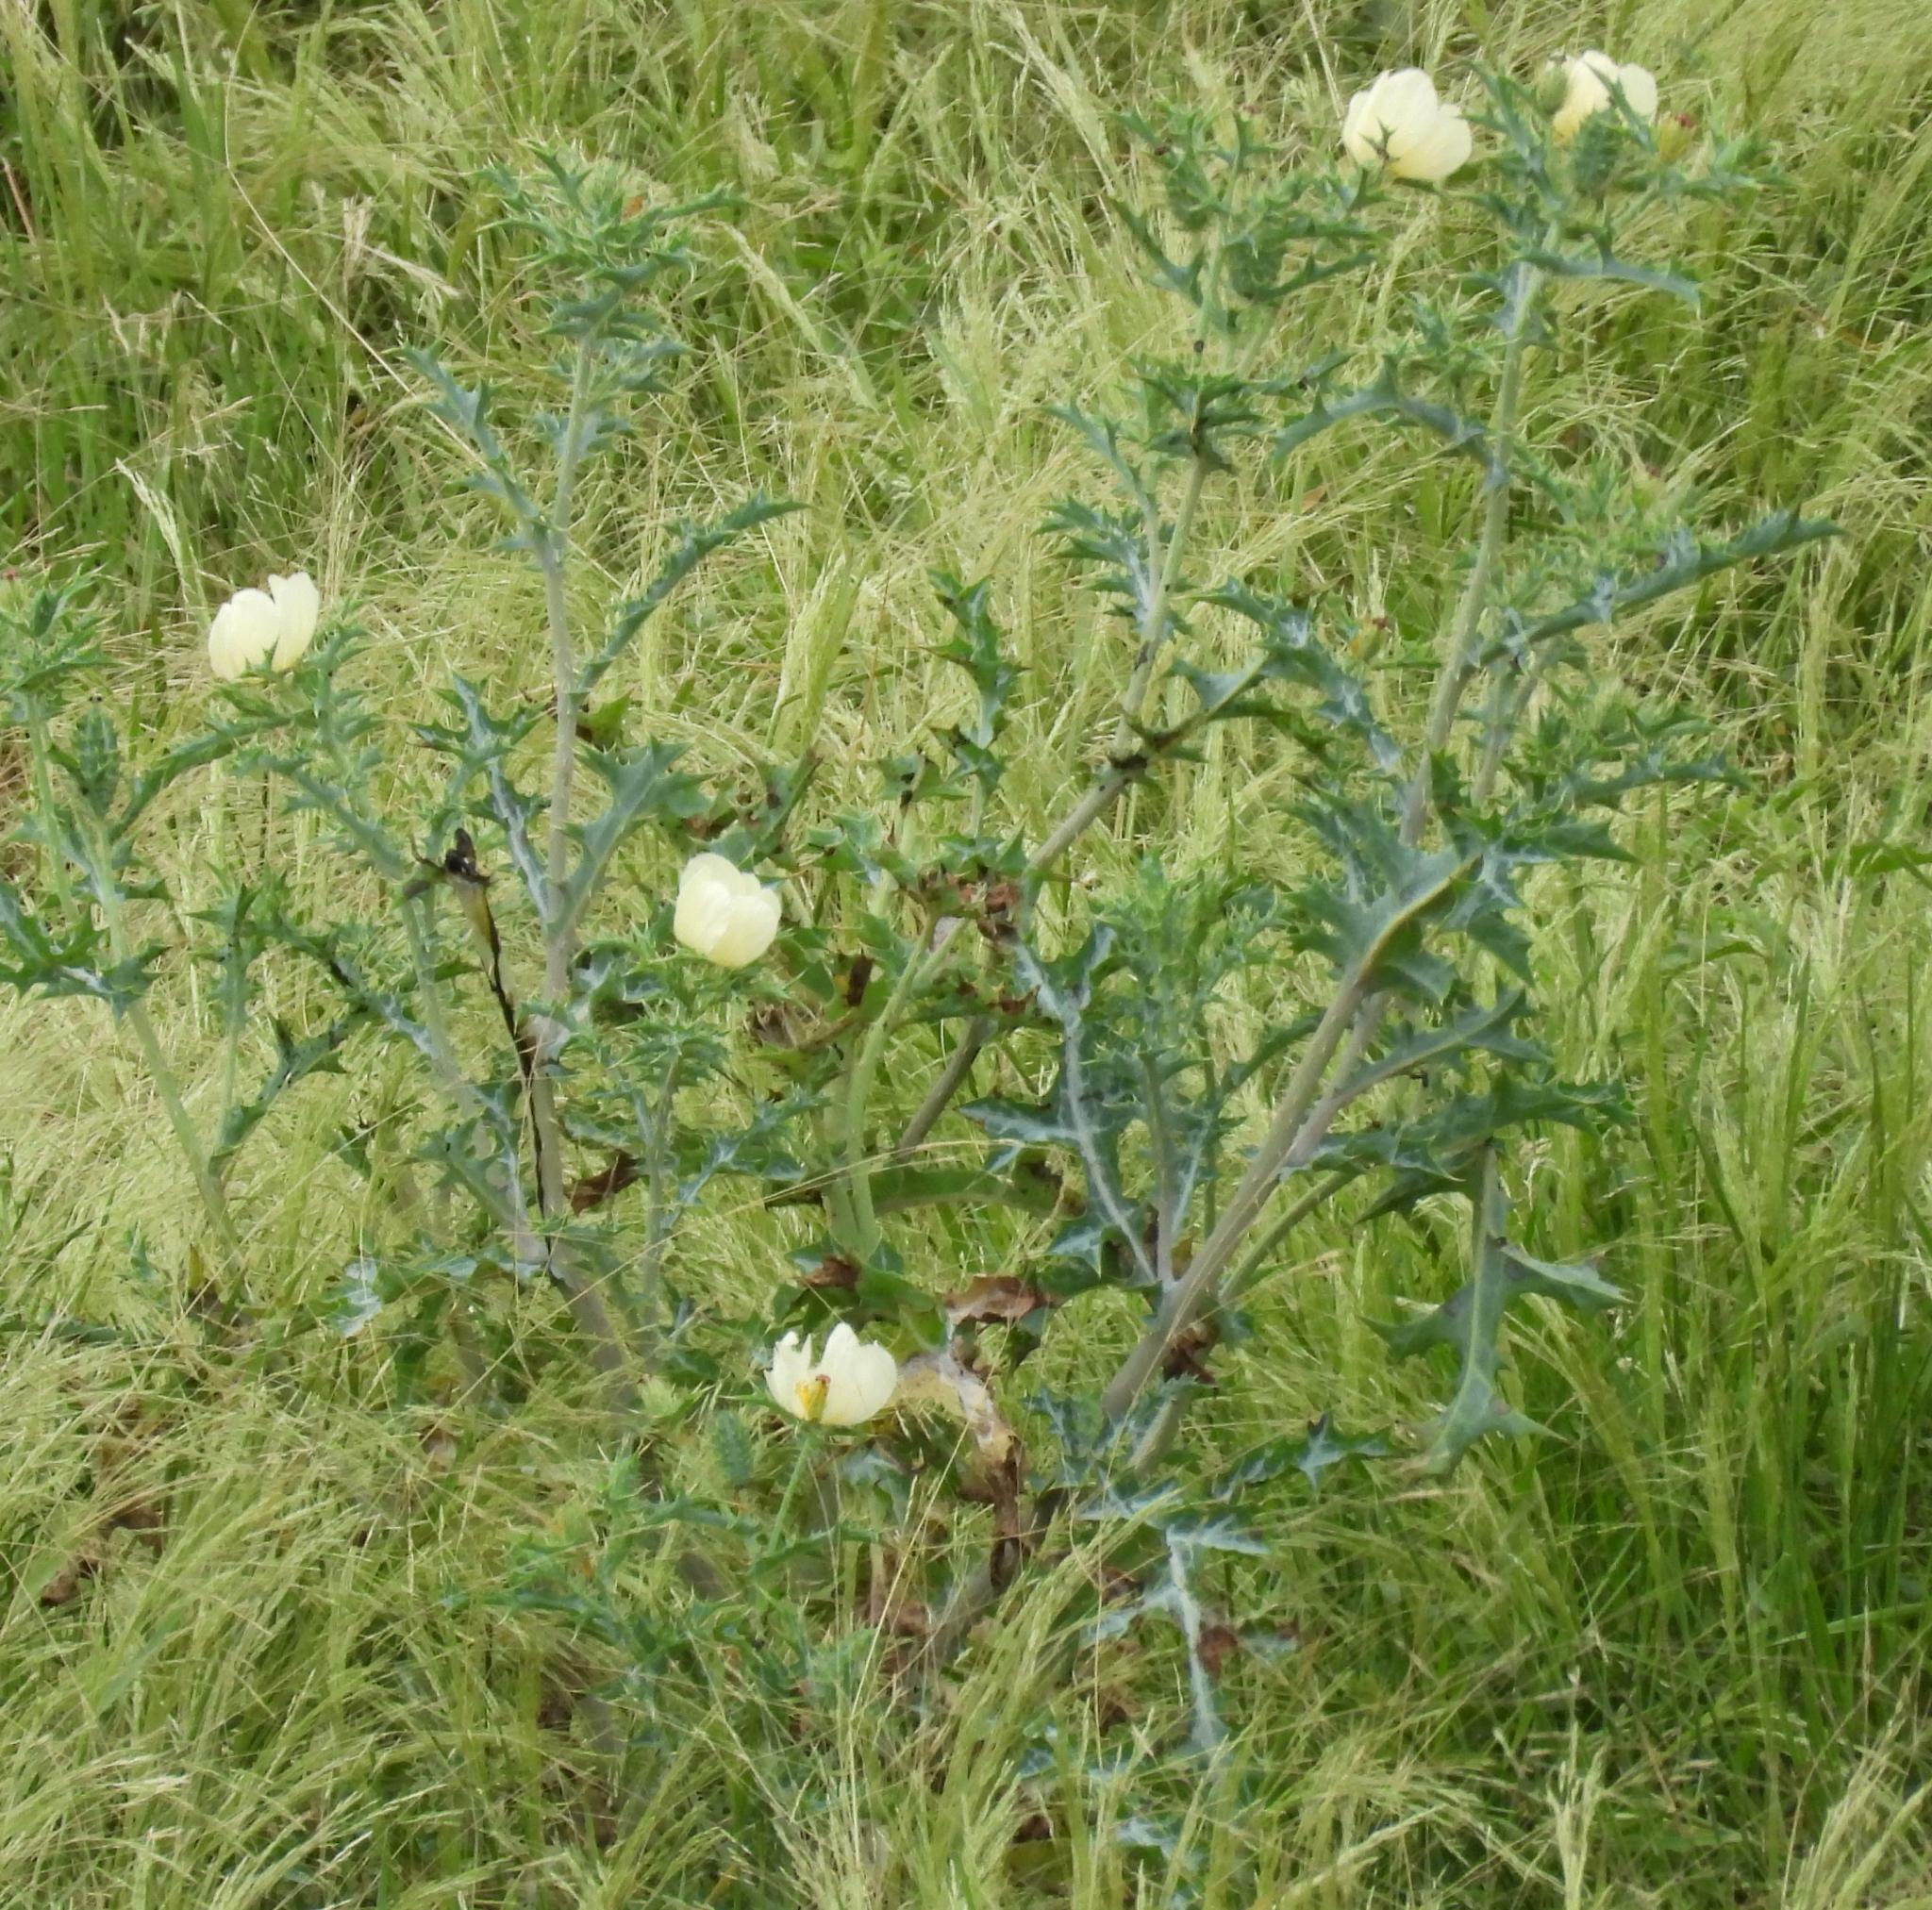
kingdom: Plantae
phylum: Tracheophyta
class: Magnoliopsida
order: Ranunculales
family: Papaveraceae
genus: Argemone
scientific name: Argemone ochroleuca
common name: White-flower mexican-poppy
